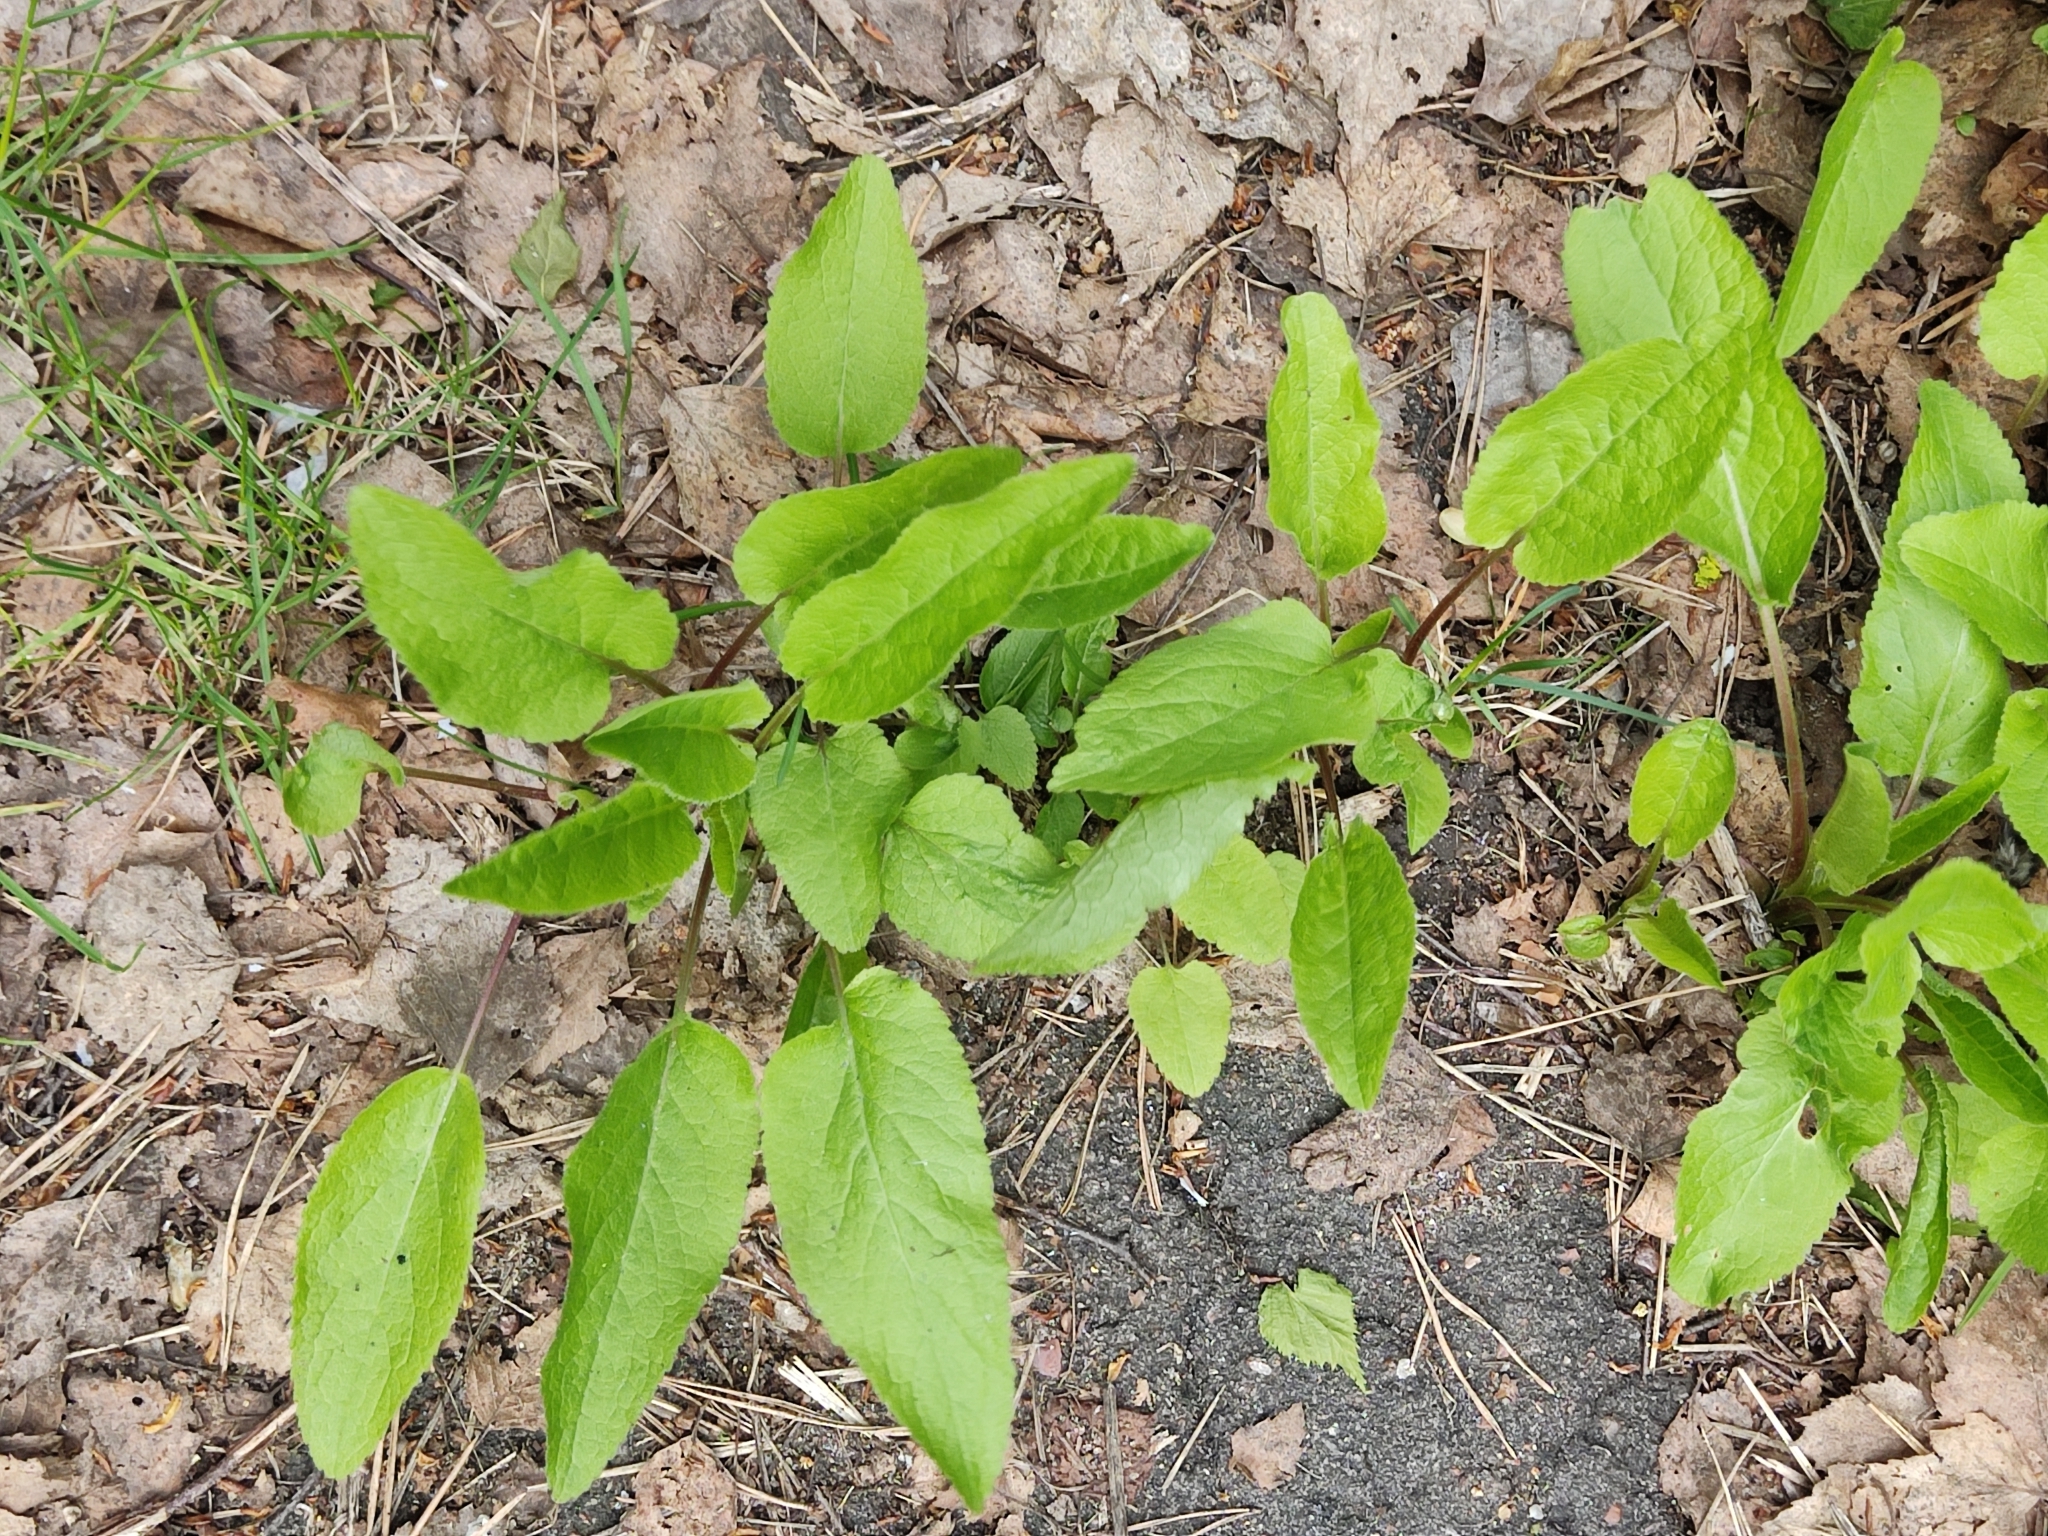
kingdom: Plantae
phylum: Tracheophyta
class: Magnoliopsida
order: Asterales
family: Campanulaceae
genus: Campanula
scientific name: Campanula rapunculoides
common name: Creeping bellflower
